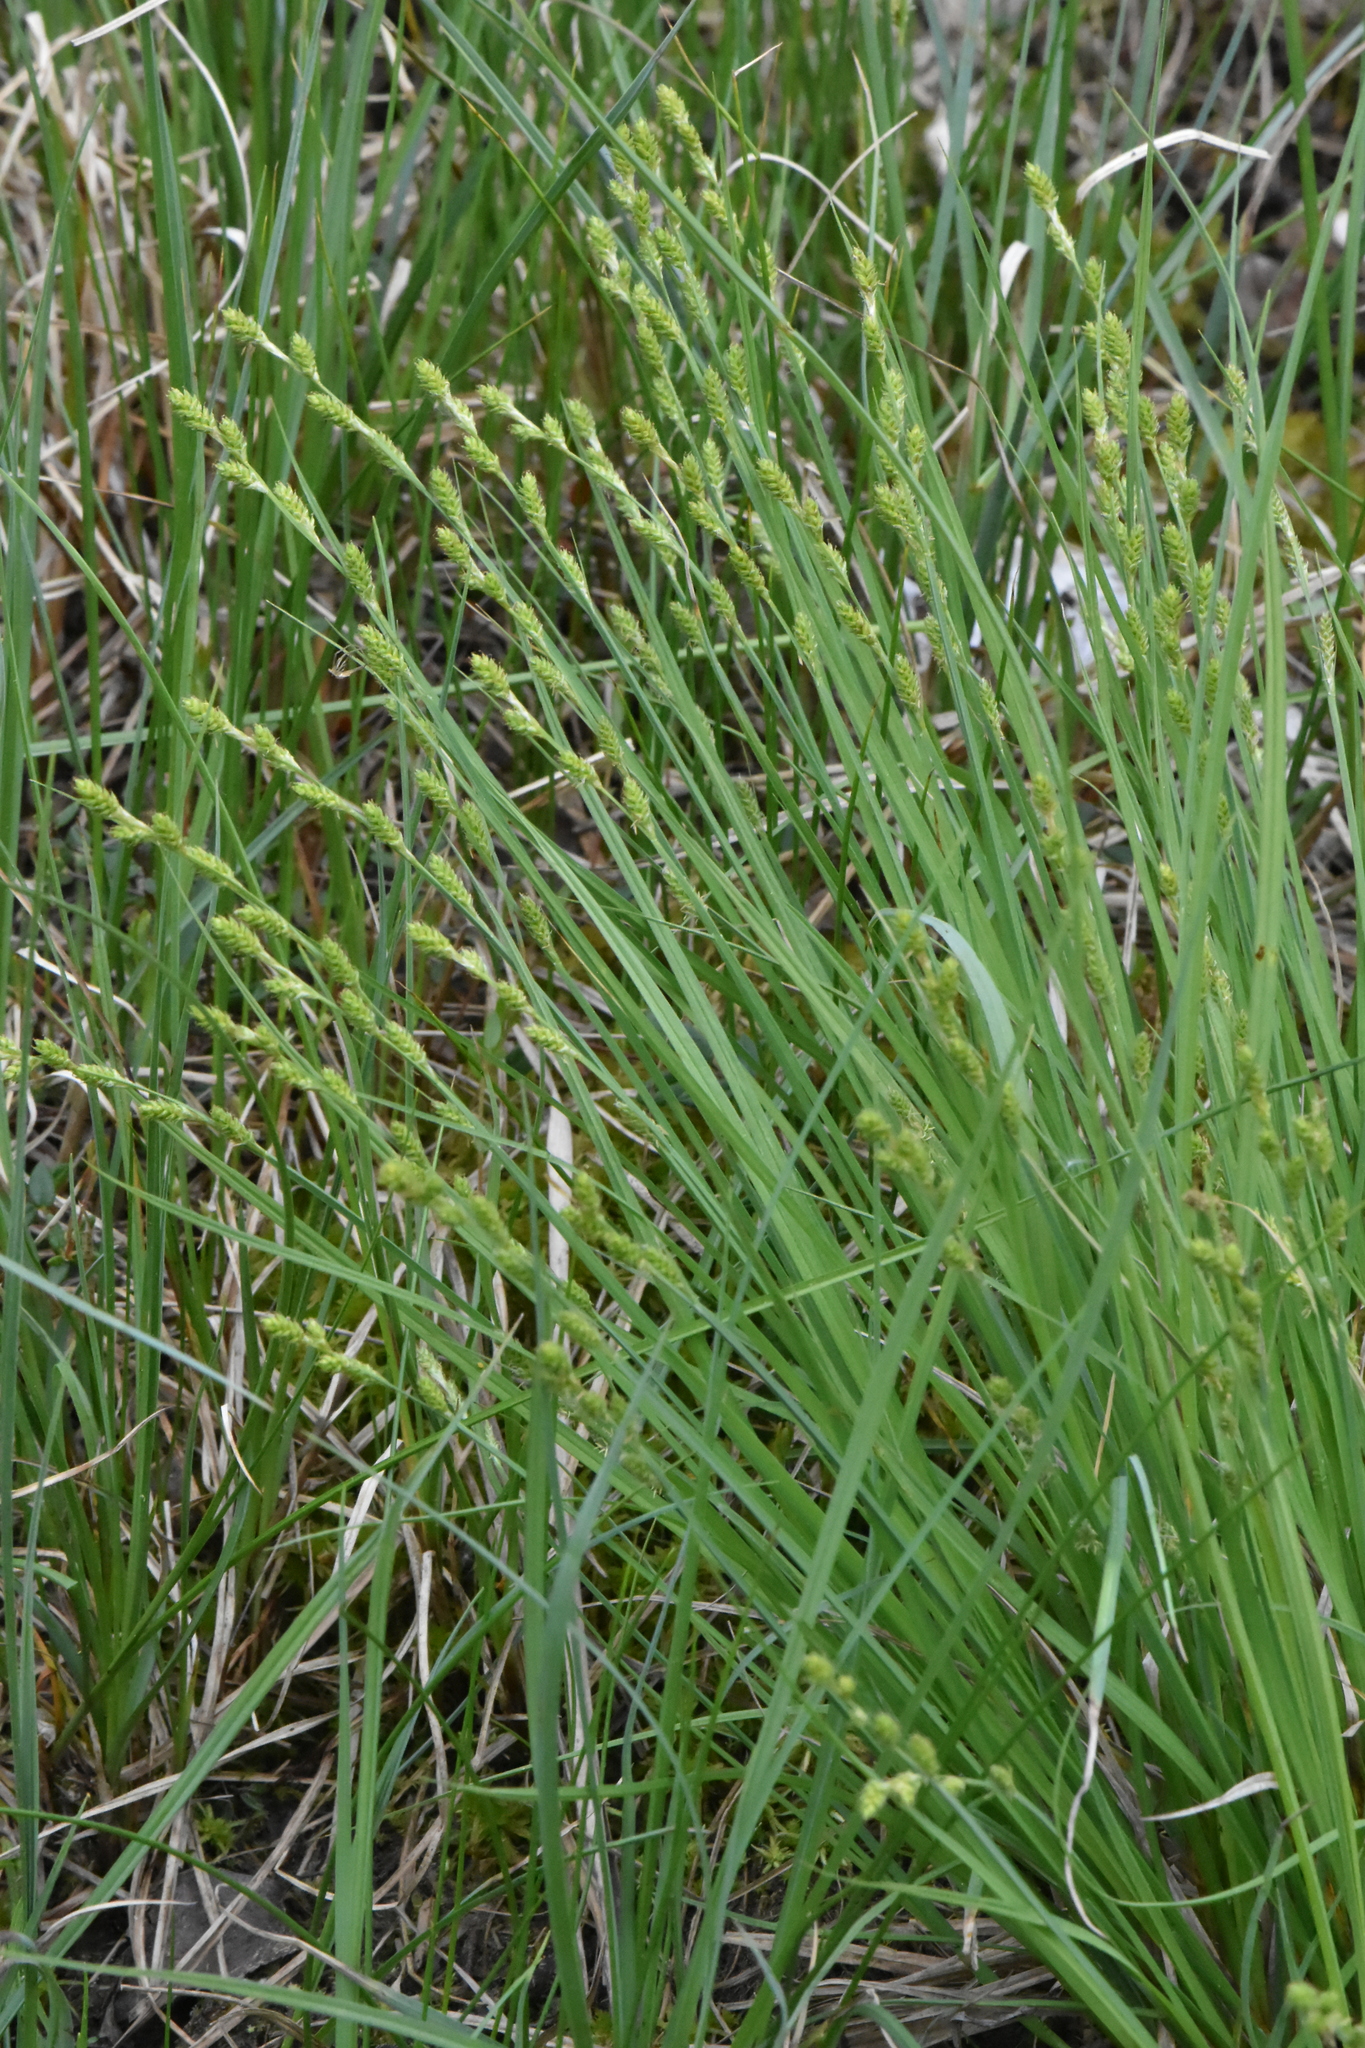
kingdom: Plantae
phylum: Tracheophyta
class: Liliopsida
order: Poales
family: Cyperaceae
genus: Carex
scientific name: Carex canescens
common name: White sedge
